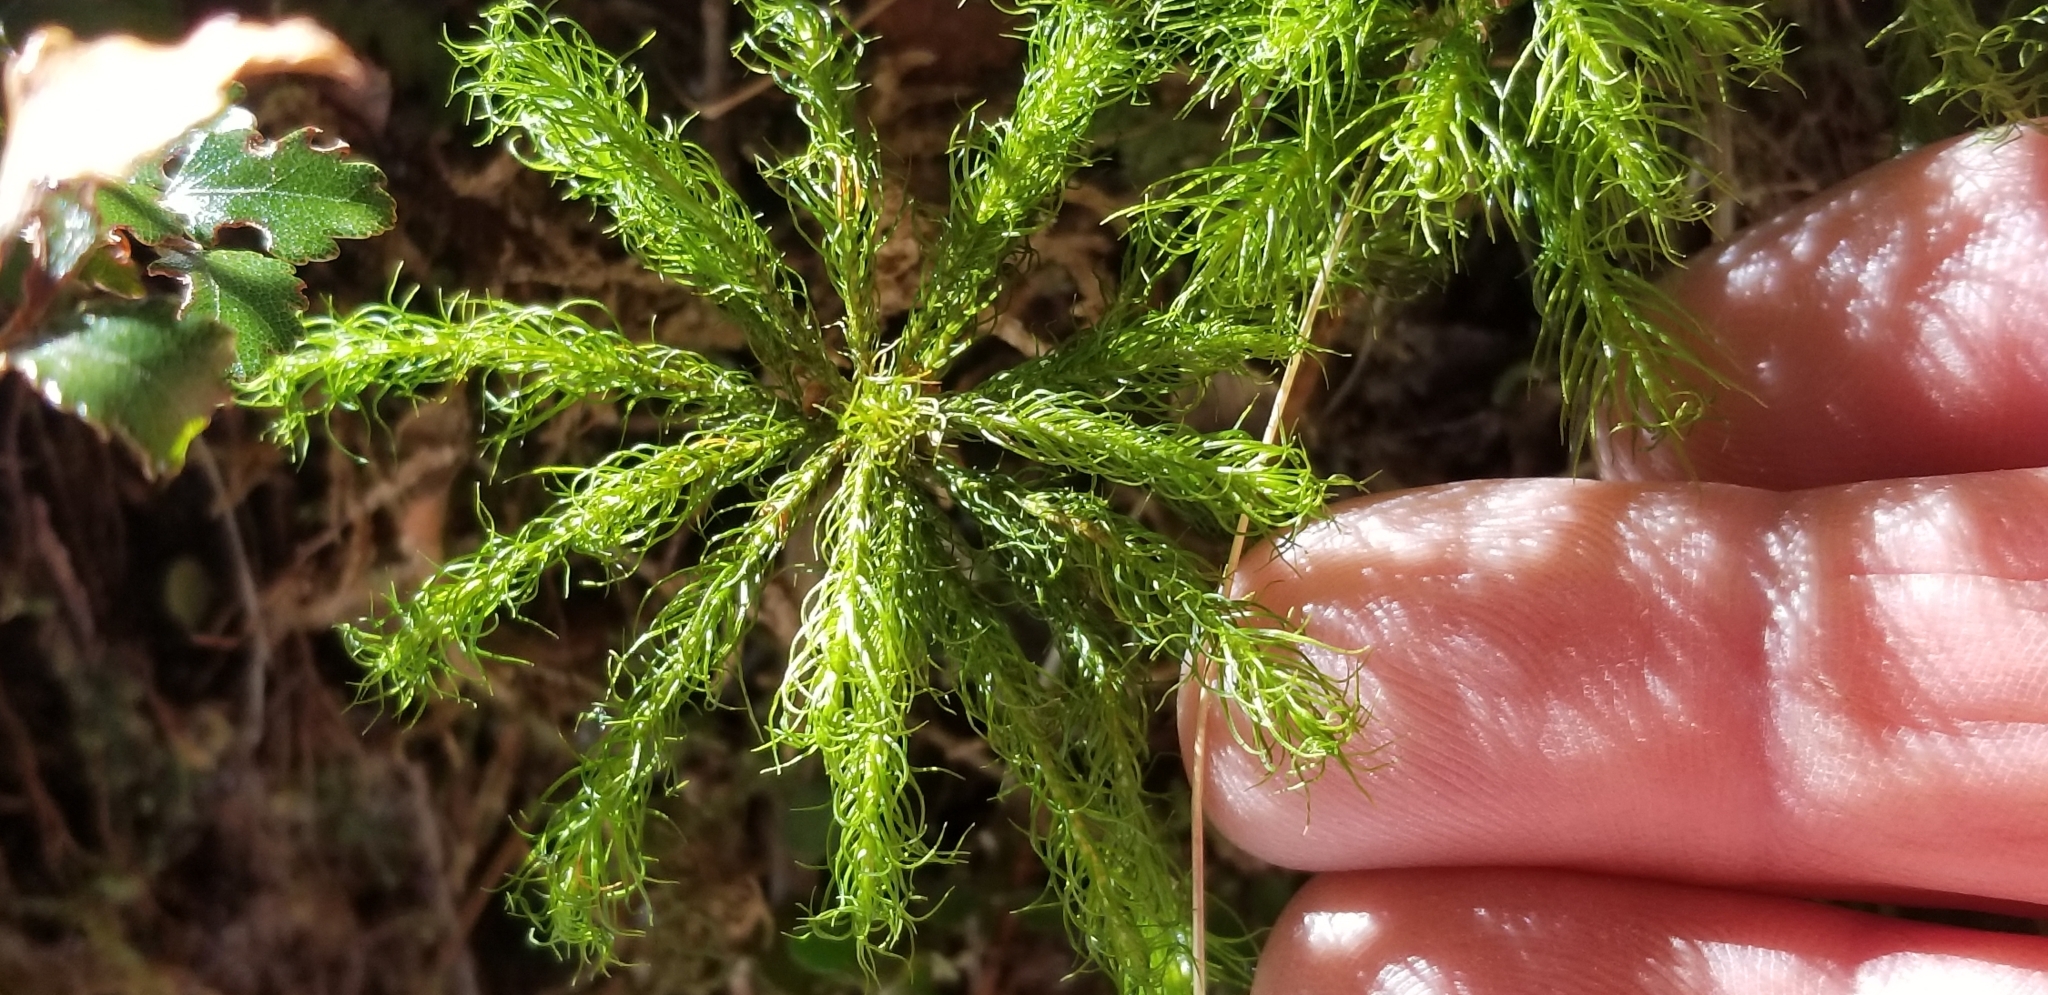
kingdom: Plantae
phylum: Bryophyta
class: Polytrichopsida
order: Polytrichales
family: Polytrichaceae
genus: Dendroligotrichum
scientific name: Dendroligotrichum tongariroense
